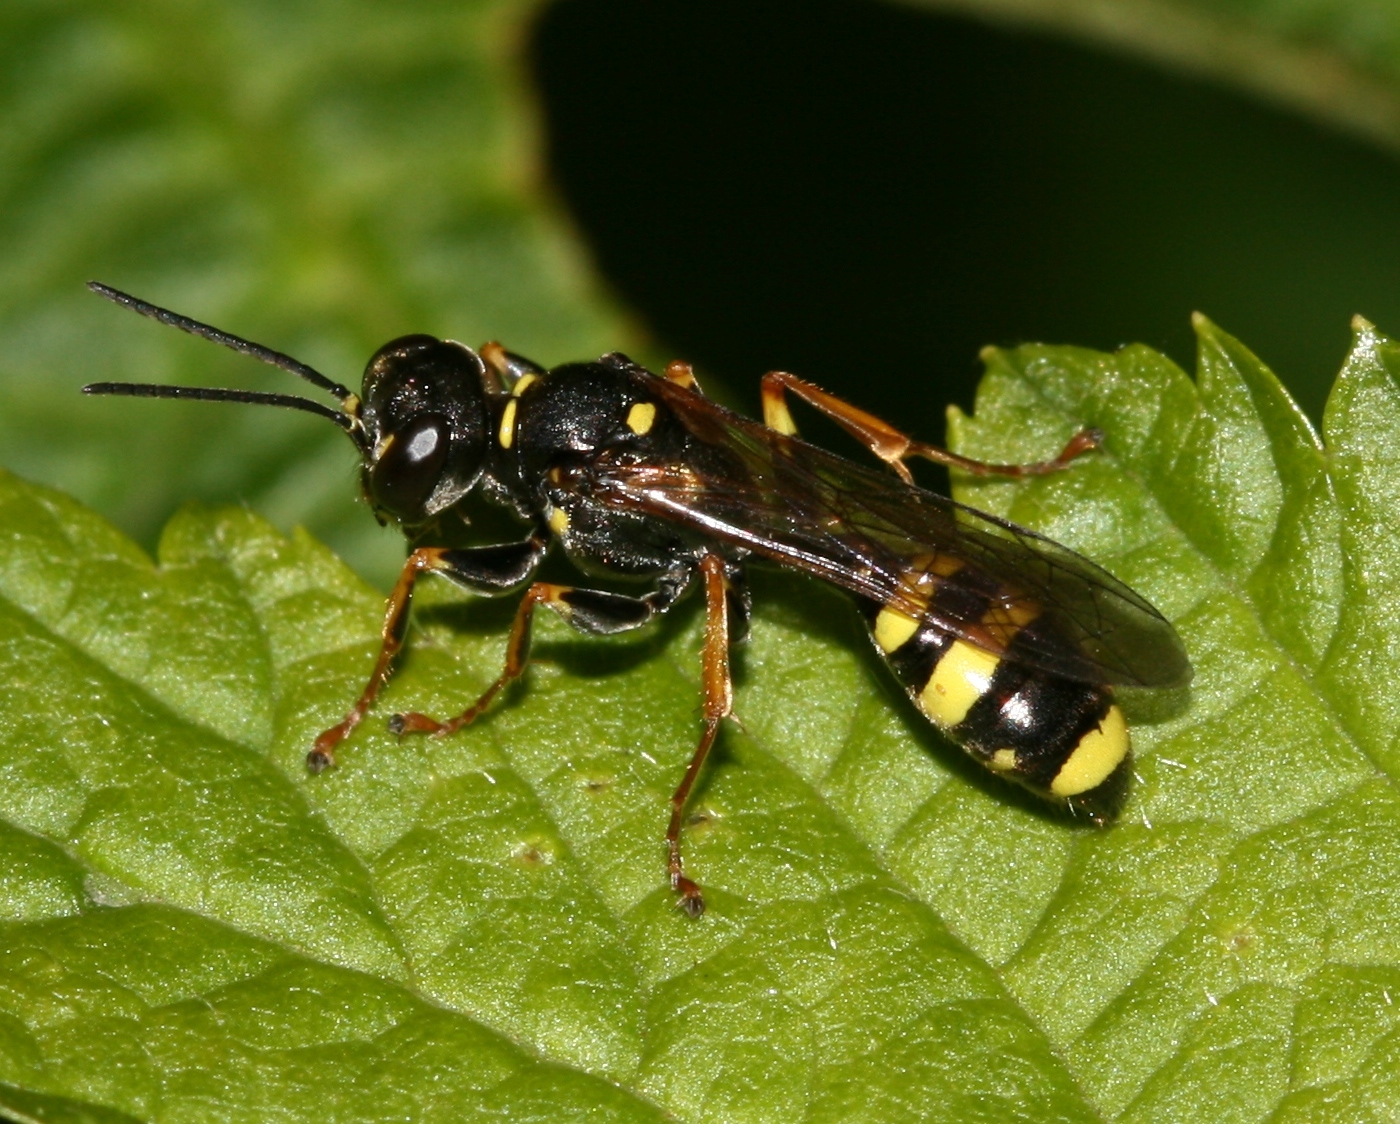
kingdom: Animalia
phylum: Arthropoda
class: Insecta
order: Hymenoptera
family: Crabronidae
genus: Mellinus
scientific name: Mellinus arvensis
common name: Field digger wasp
